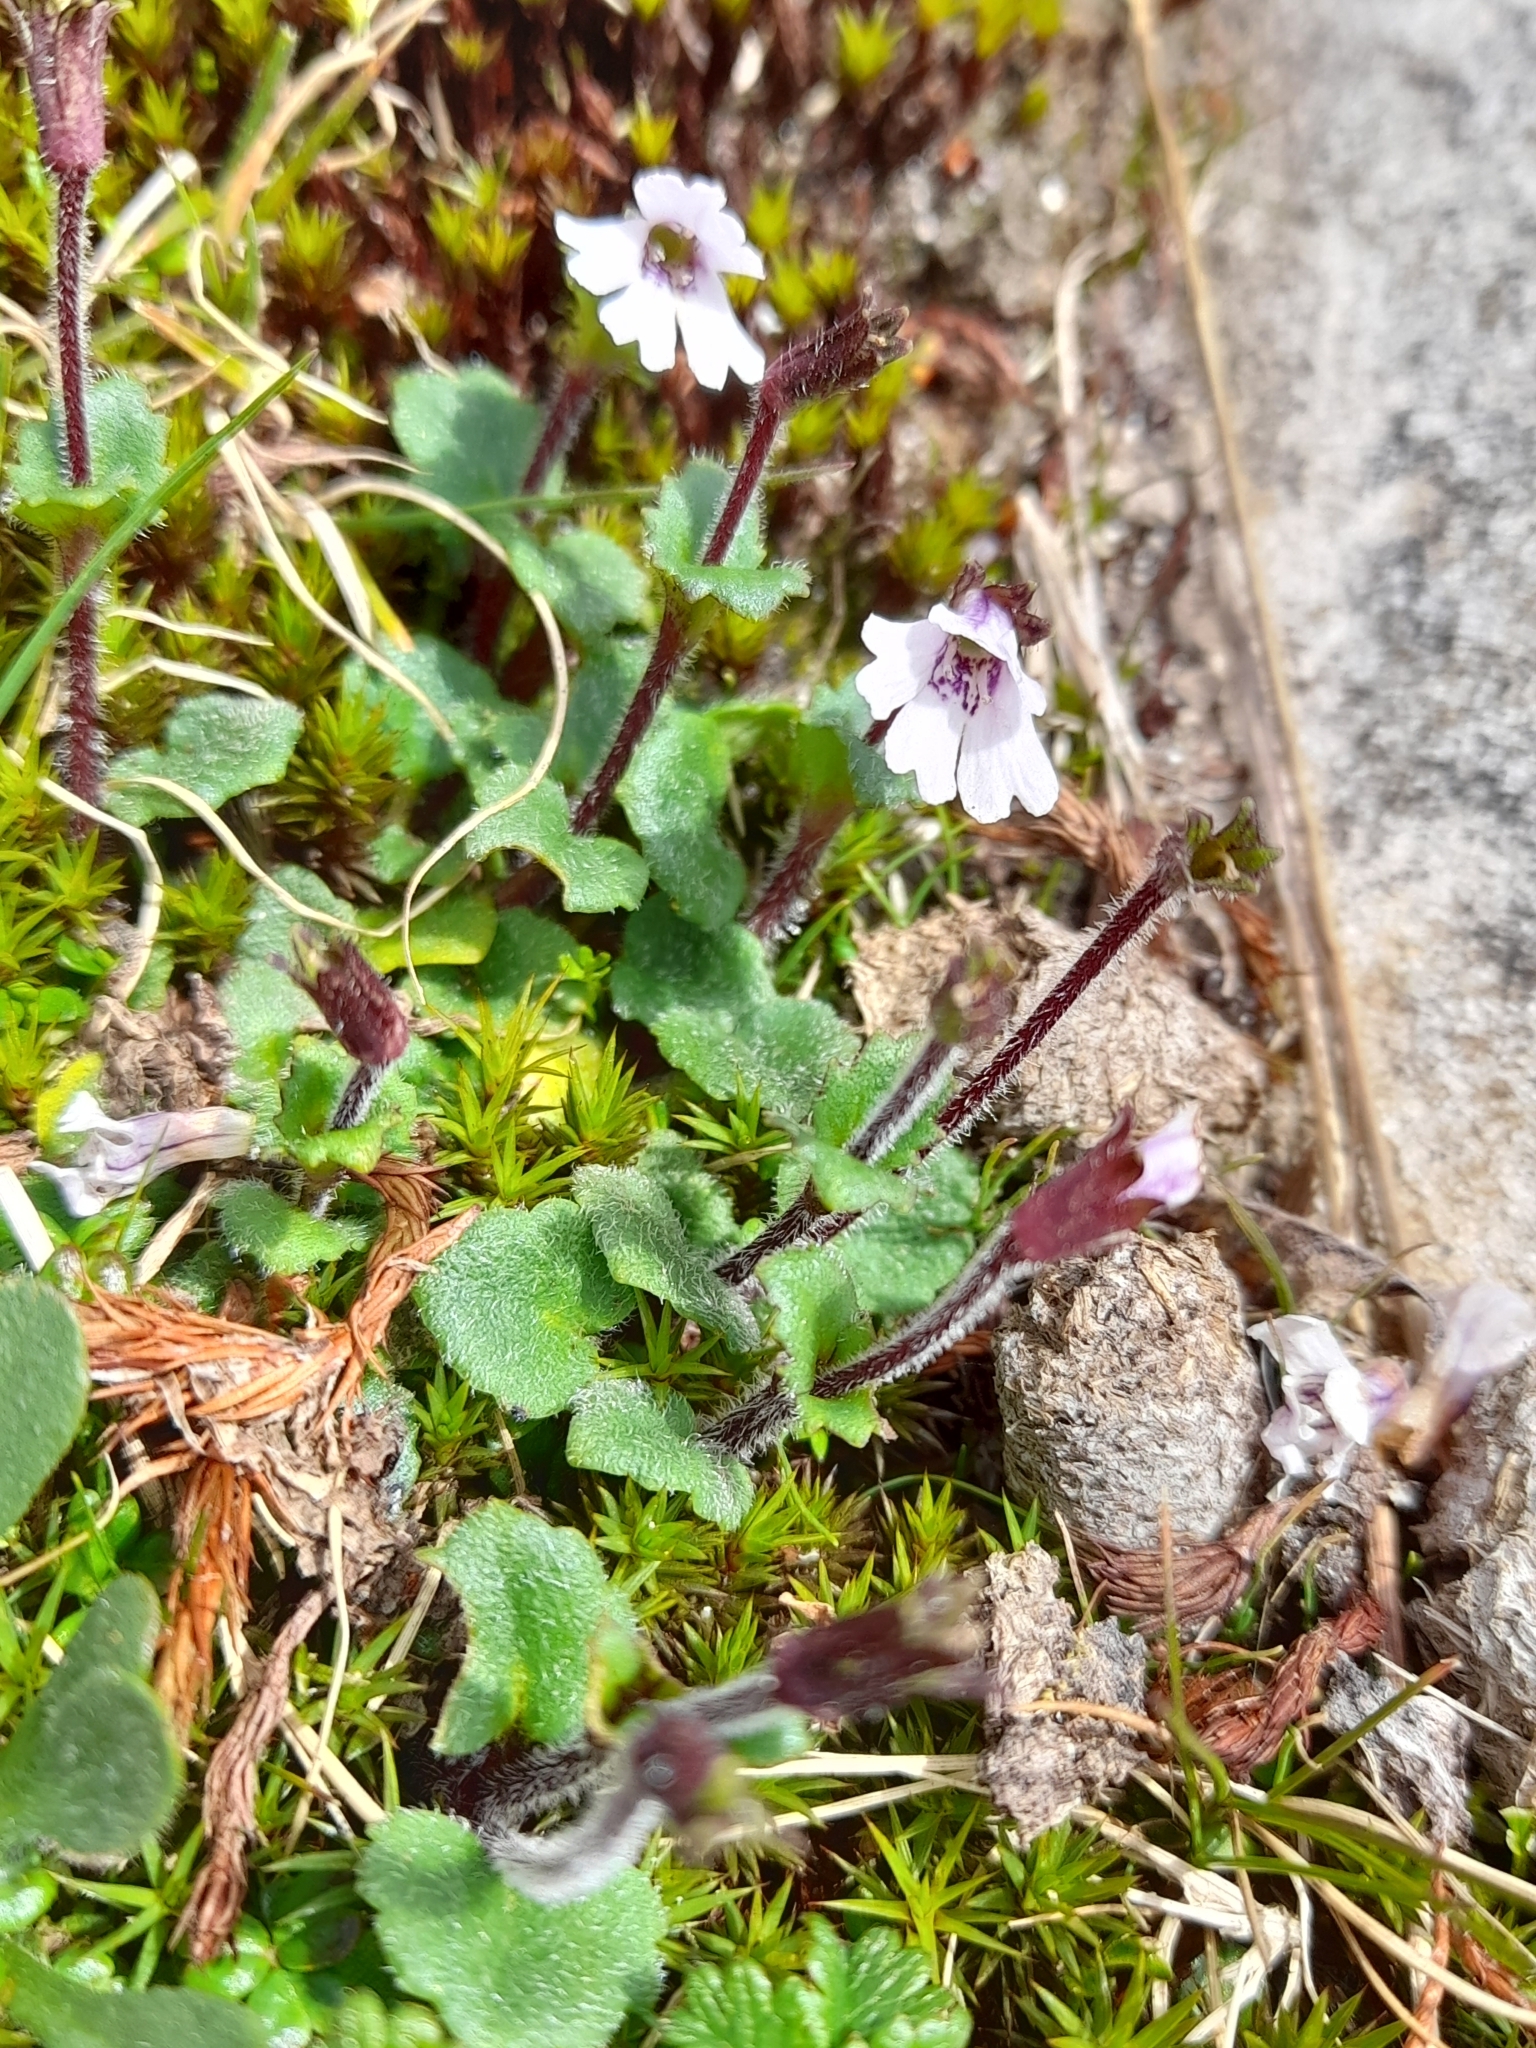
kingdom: Plantae
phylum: Tracheophyta
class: Magnoliopsida
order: Lamiales
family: Plantaginaceae
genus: Ourisia
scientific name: Ourisia breviflora
